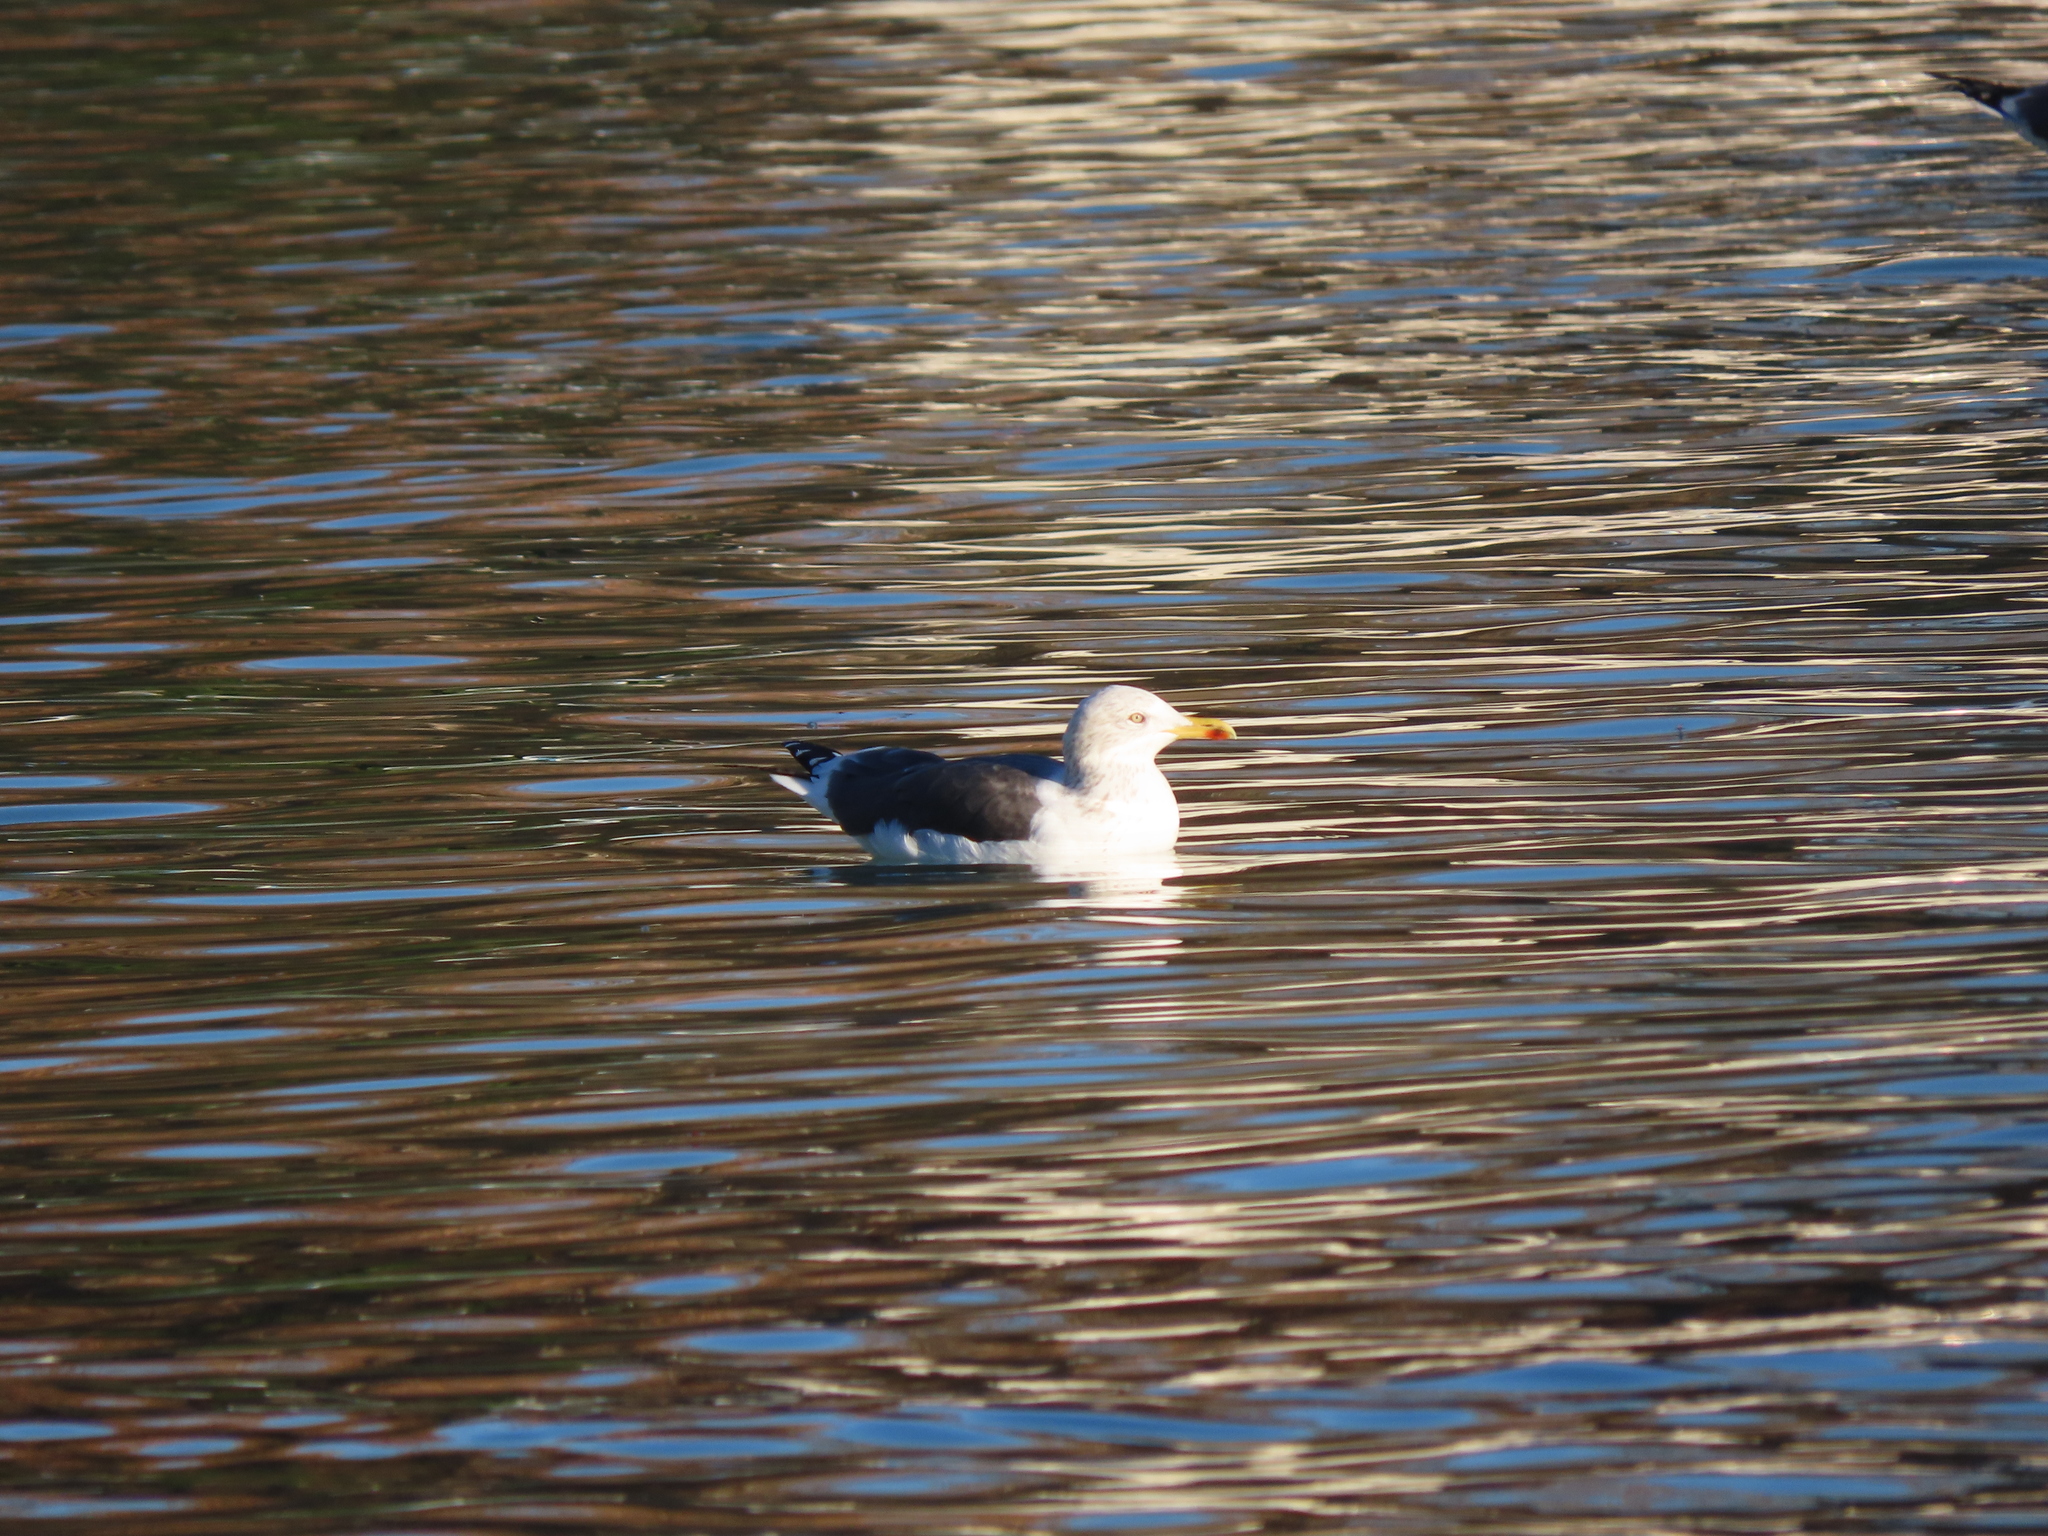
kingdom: Animalia
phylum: Chordata
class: Aves
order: Charadriiformes
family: Laridae
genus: Larus
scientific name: Larus fuscus
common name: Lesser black-backed gull
